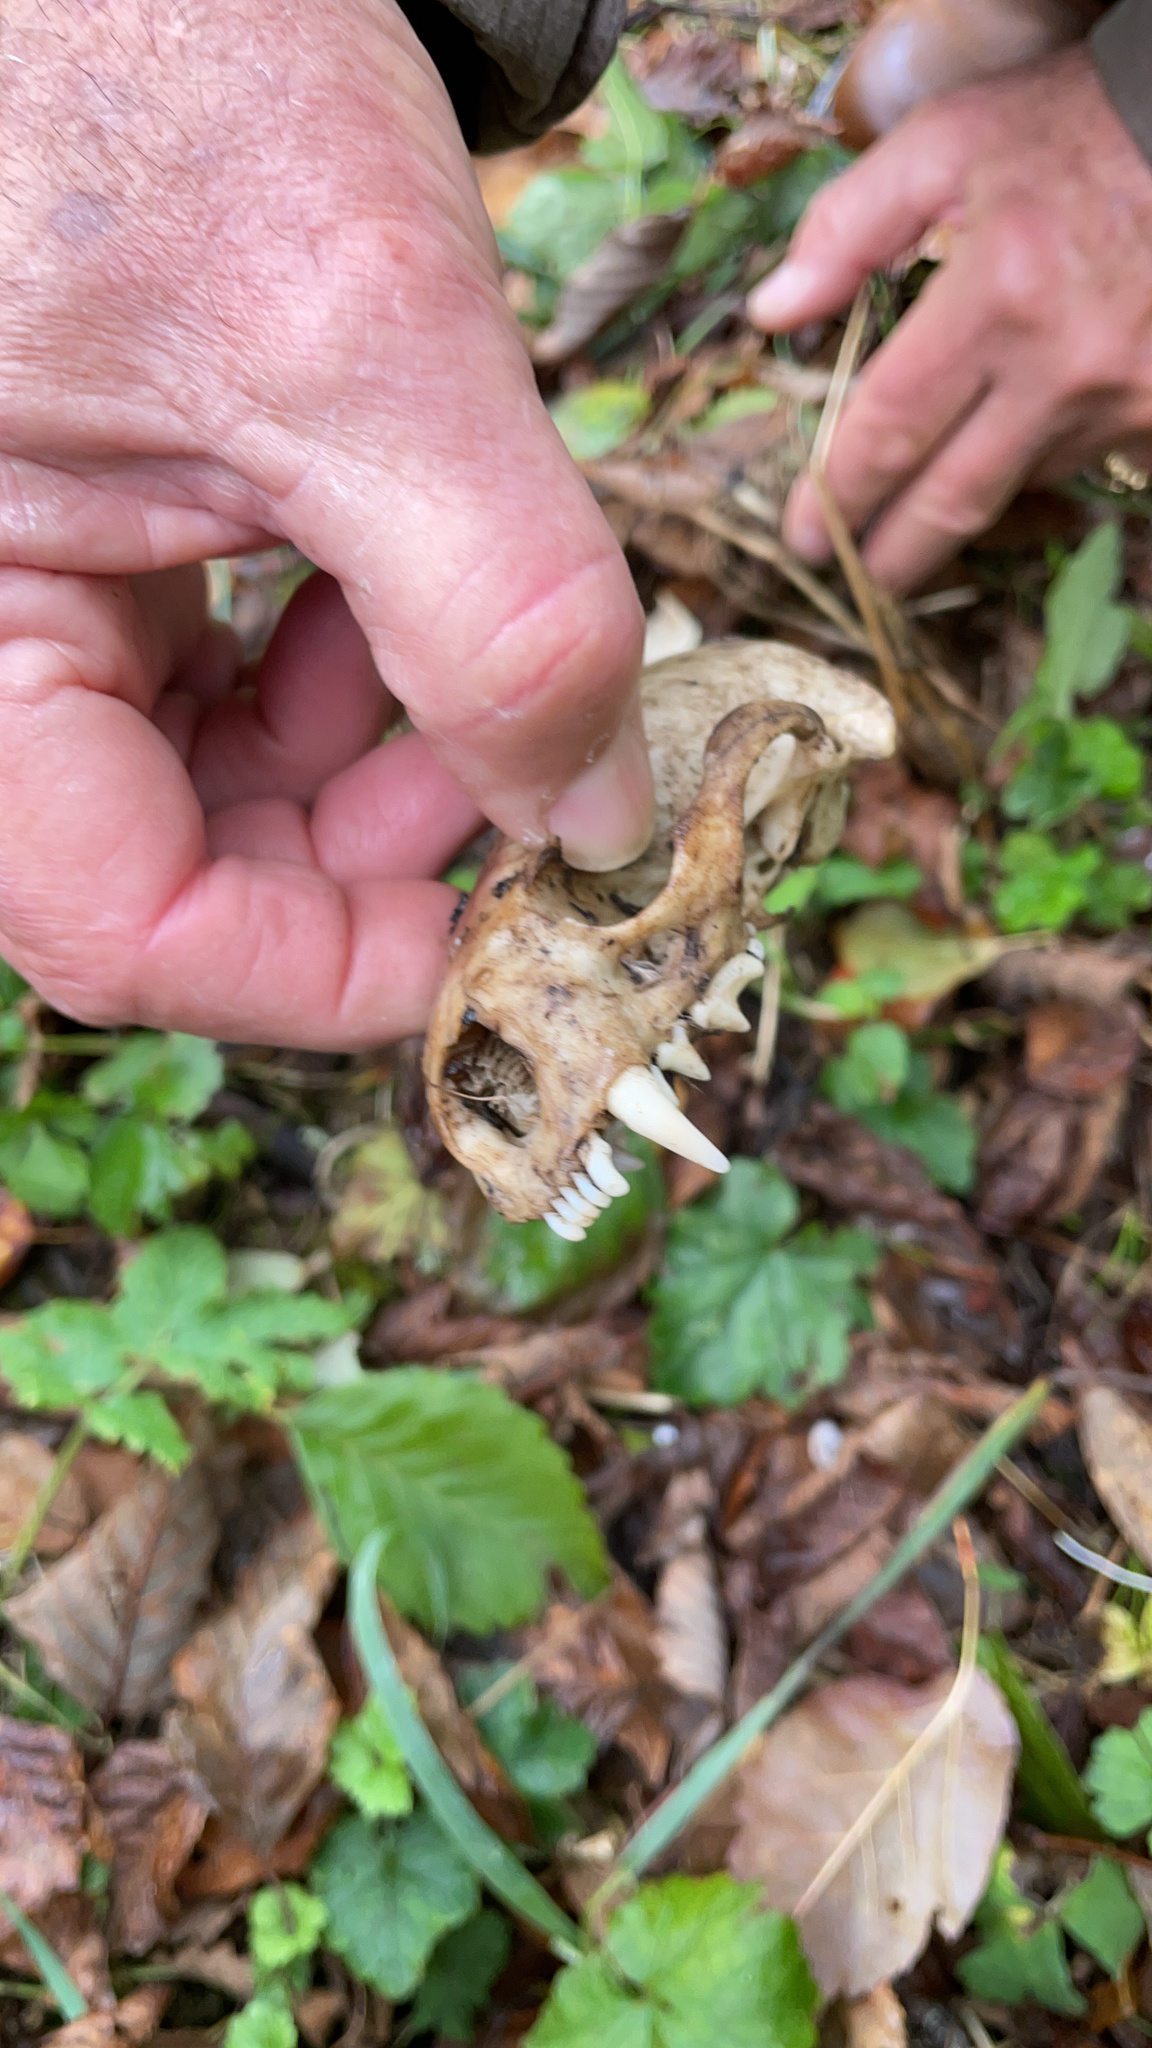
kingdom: Animalia
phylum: Chordata
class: Mammalia
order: Carnivora
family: Mustelidae
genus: Lontra
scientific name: Lontra canadensis
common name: North american river otter
